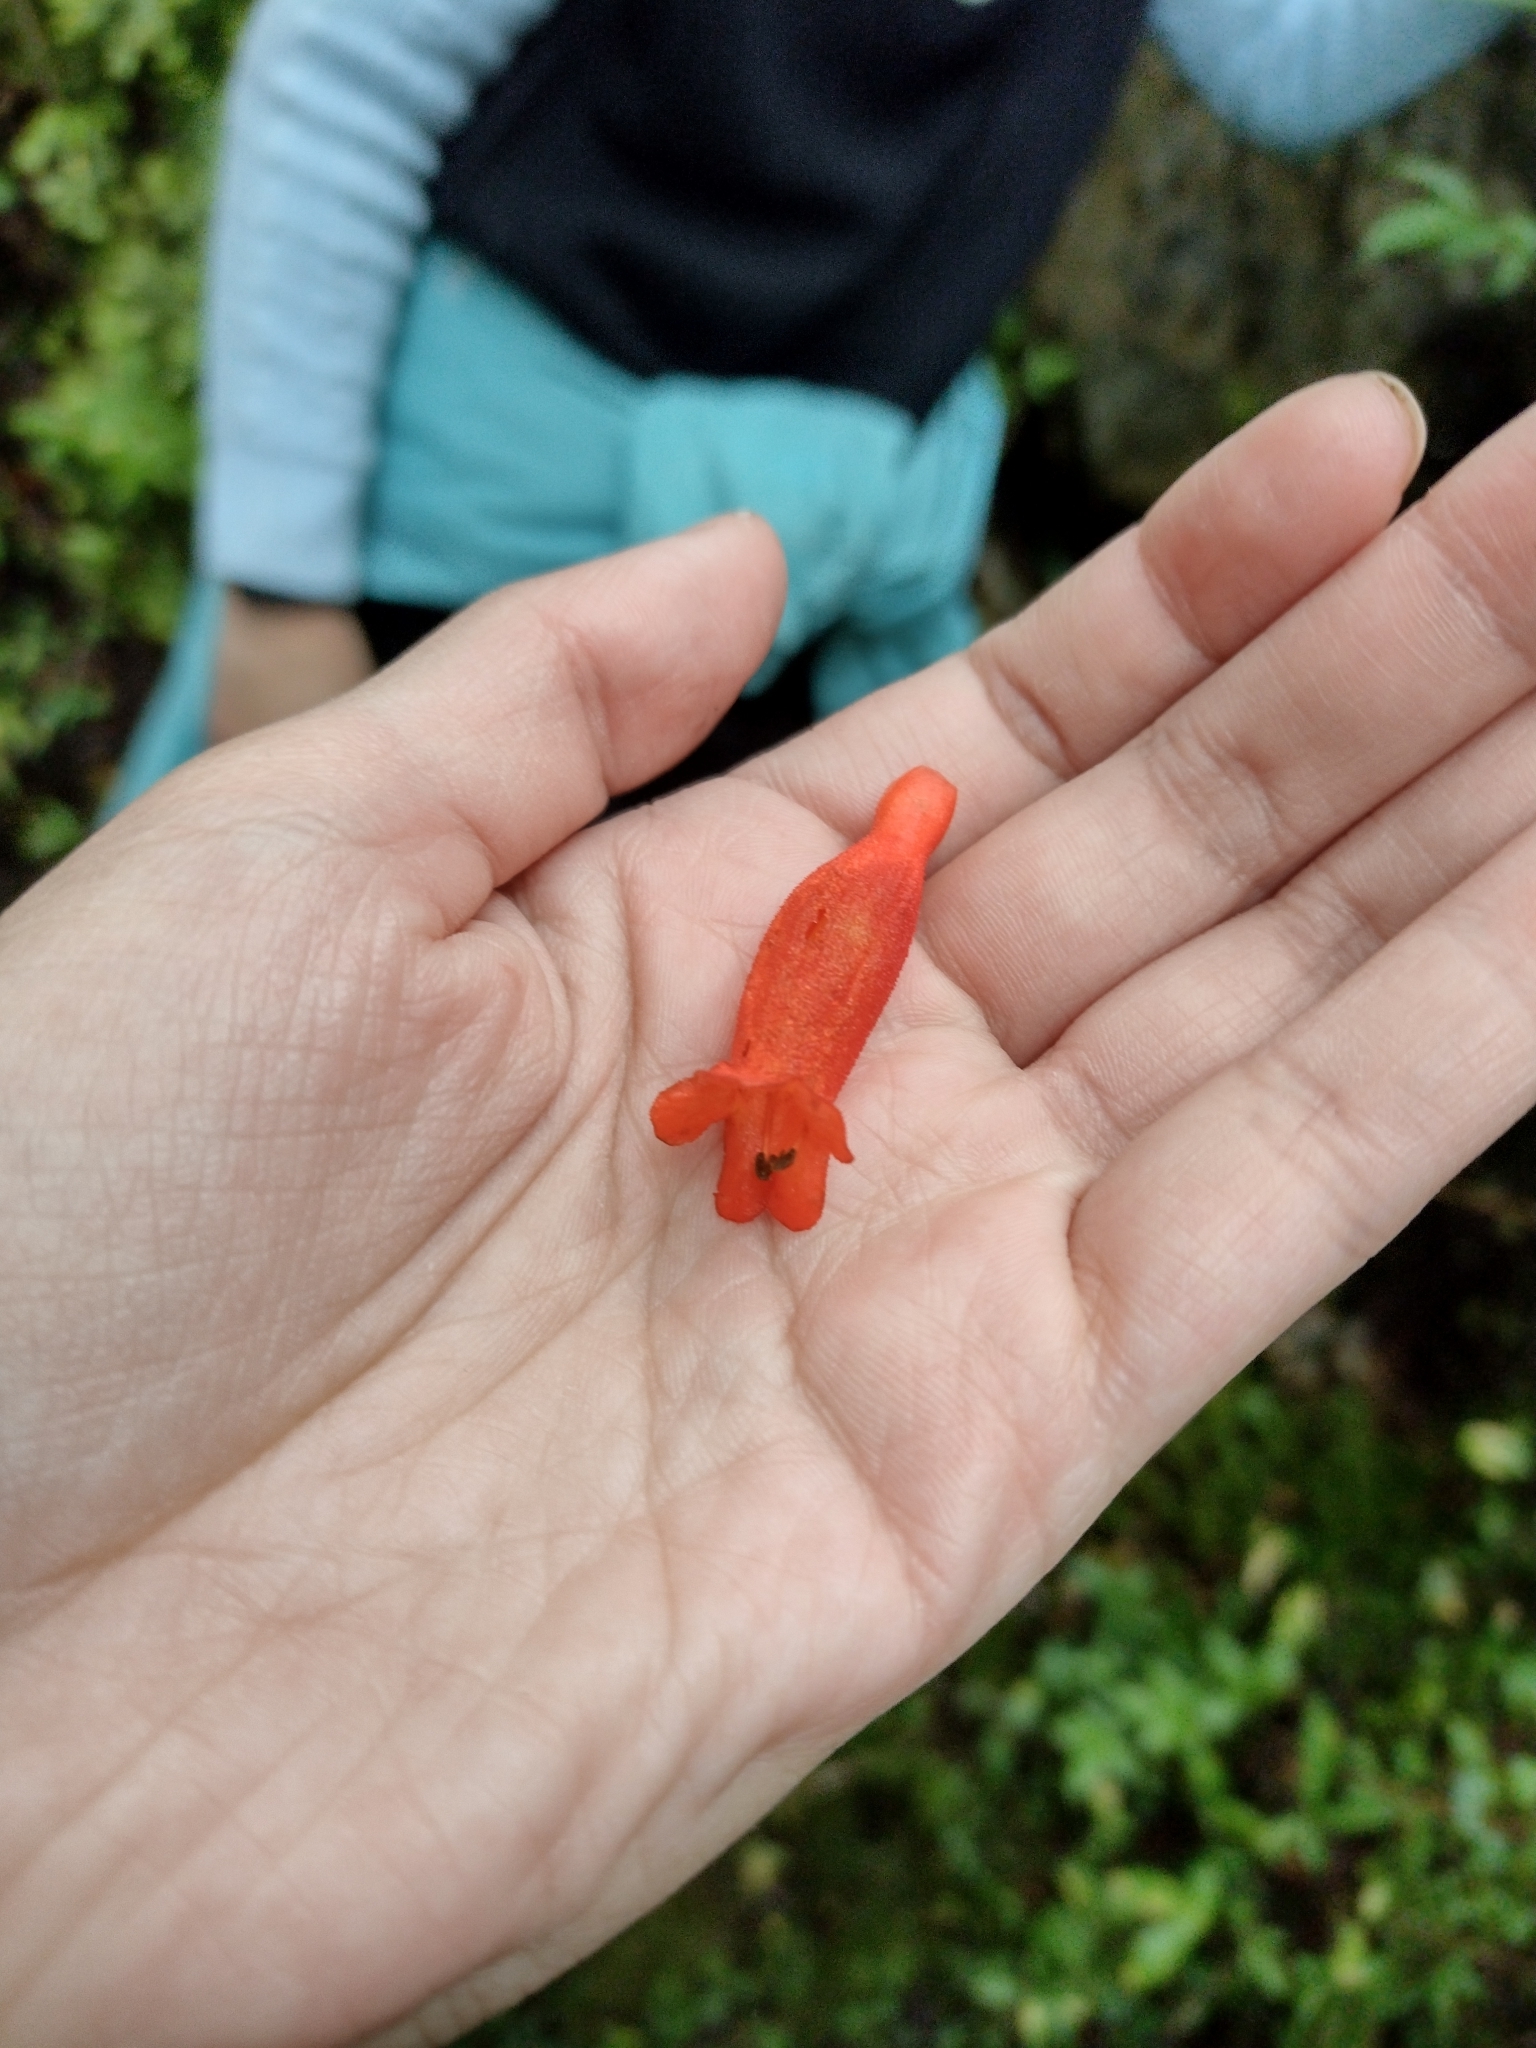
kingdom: Plantae
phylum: Tracheophyta
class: Magnoliopsida
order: Lamiales
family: Gesneriaceae
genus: Mitraria
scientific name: Mitraria coccinea
